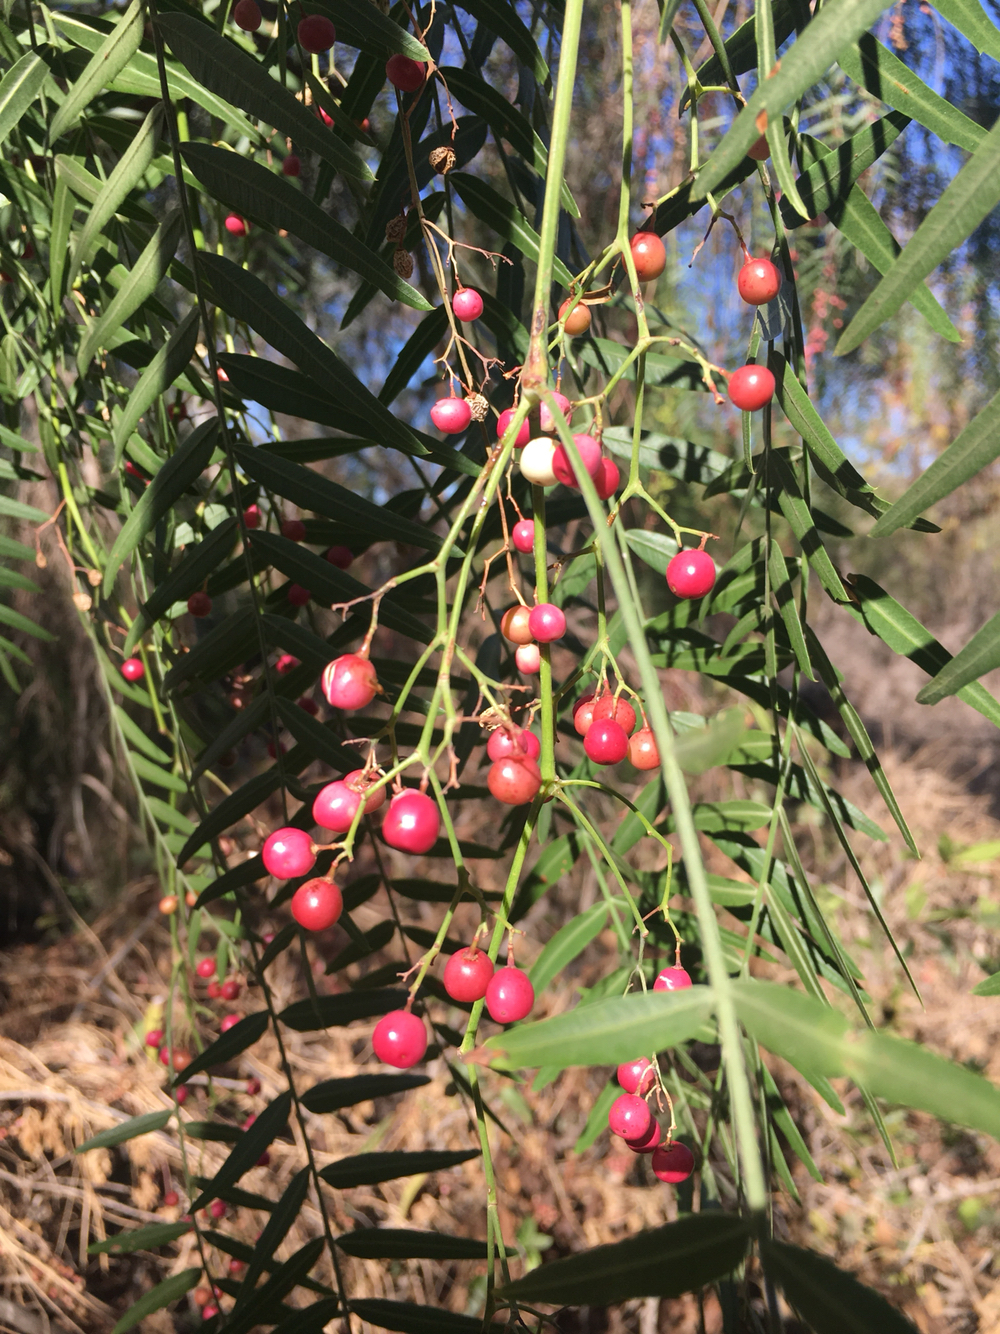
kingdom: Plantae
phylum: Tracheophyta
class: Magnoliopsida
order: Sapindales
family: Anacardiaceae
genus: Schinus
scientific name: Schinus molle
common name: Peruvian peppertree
